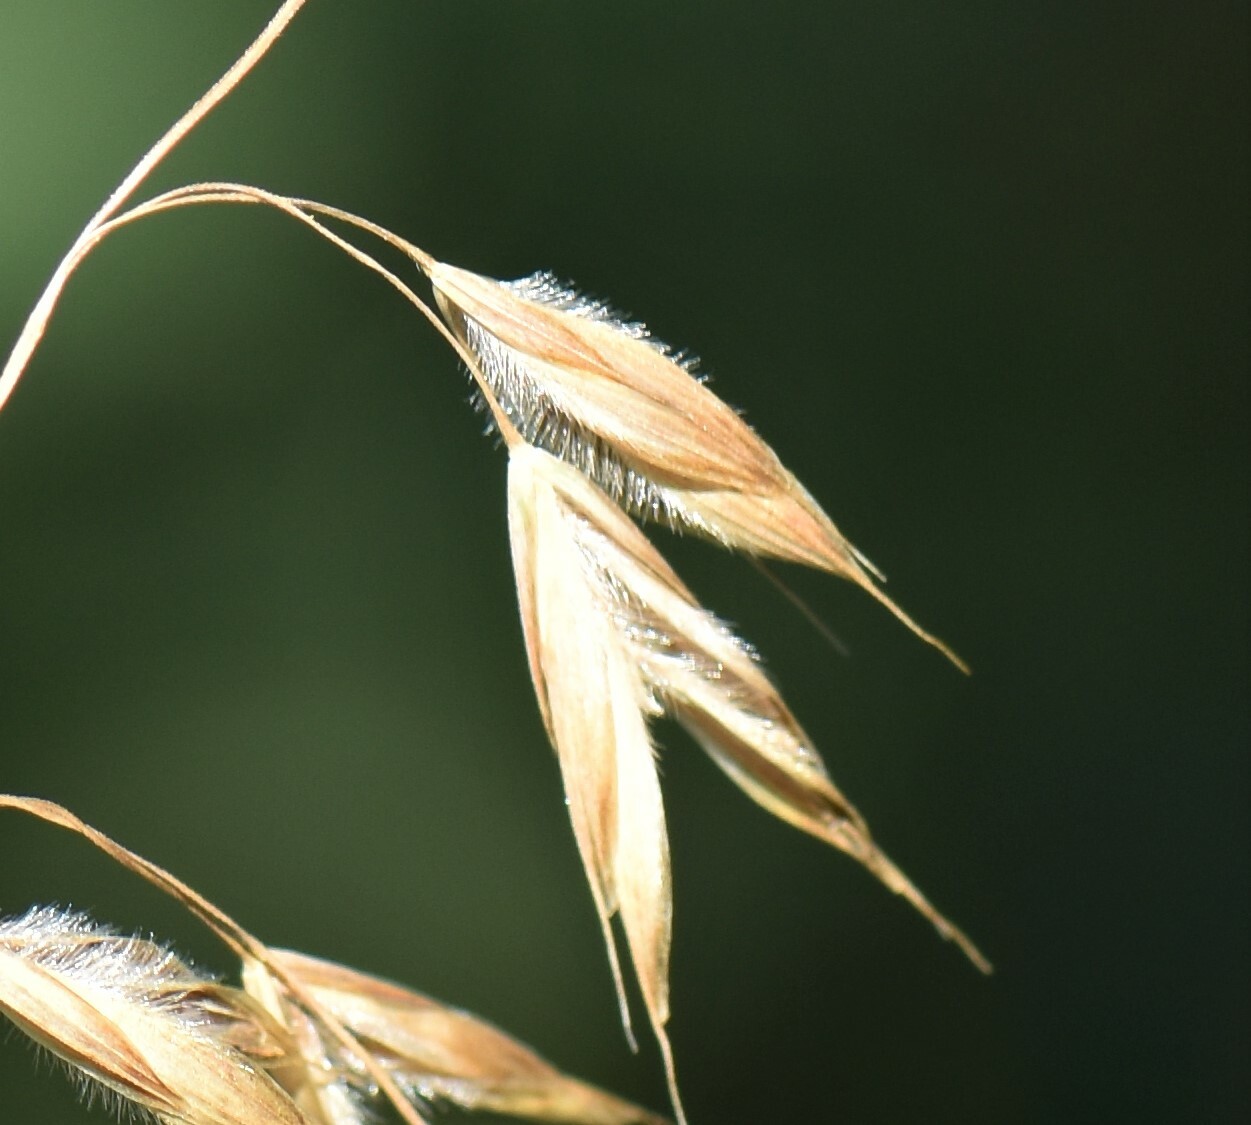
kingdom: Plantae
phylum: Tracheophyta
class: Liliopsida
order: Poales
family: Poaceae
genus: Bromus
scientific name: Bromus ciliatus
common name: Fringe brome
